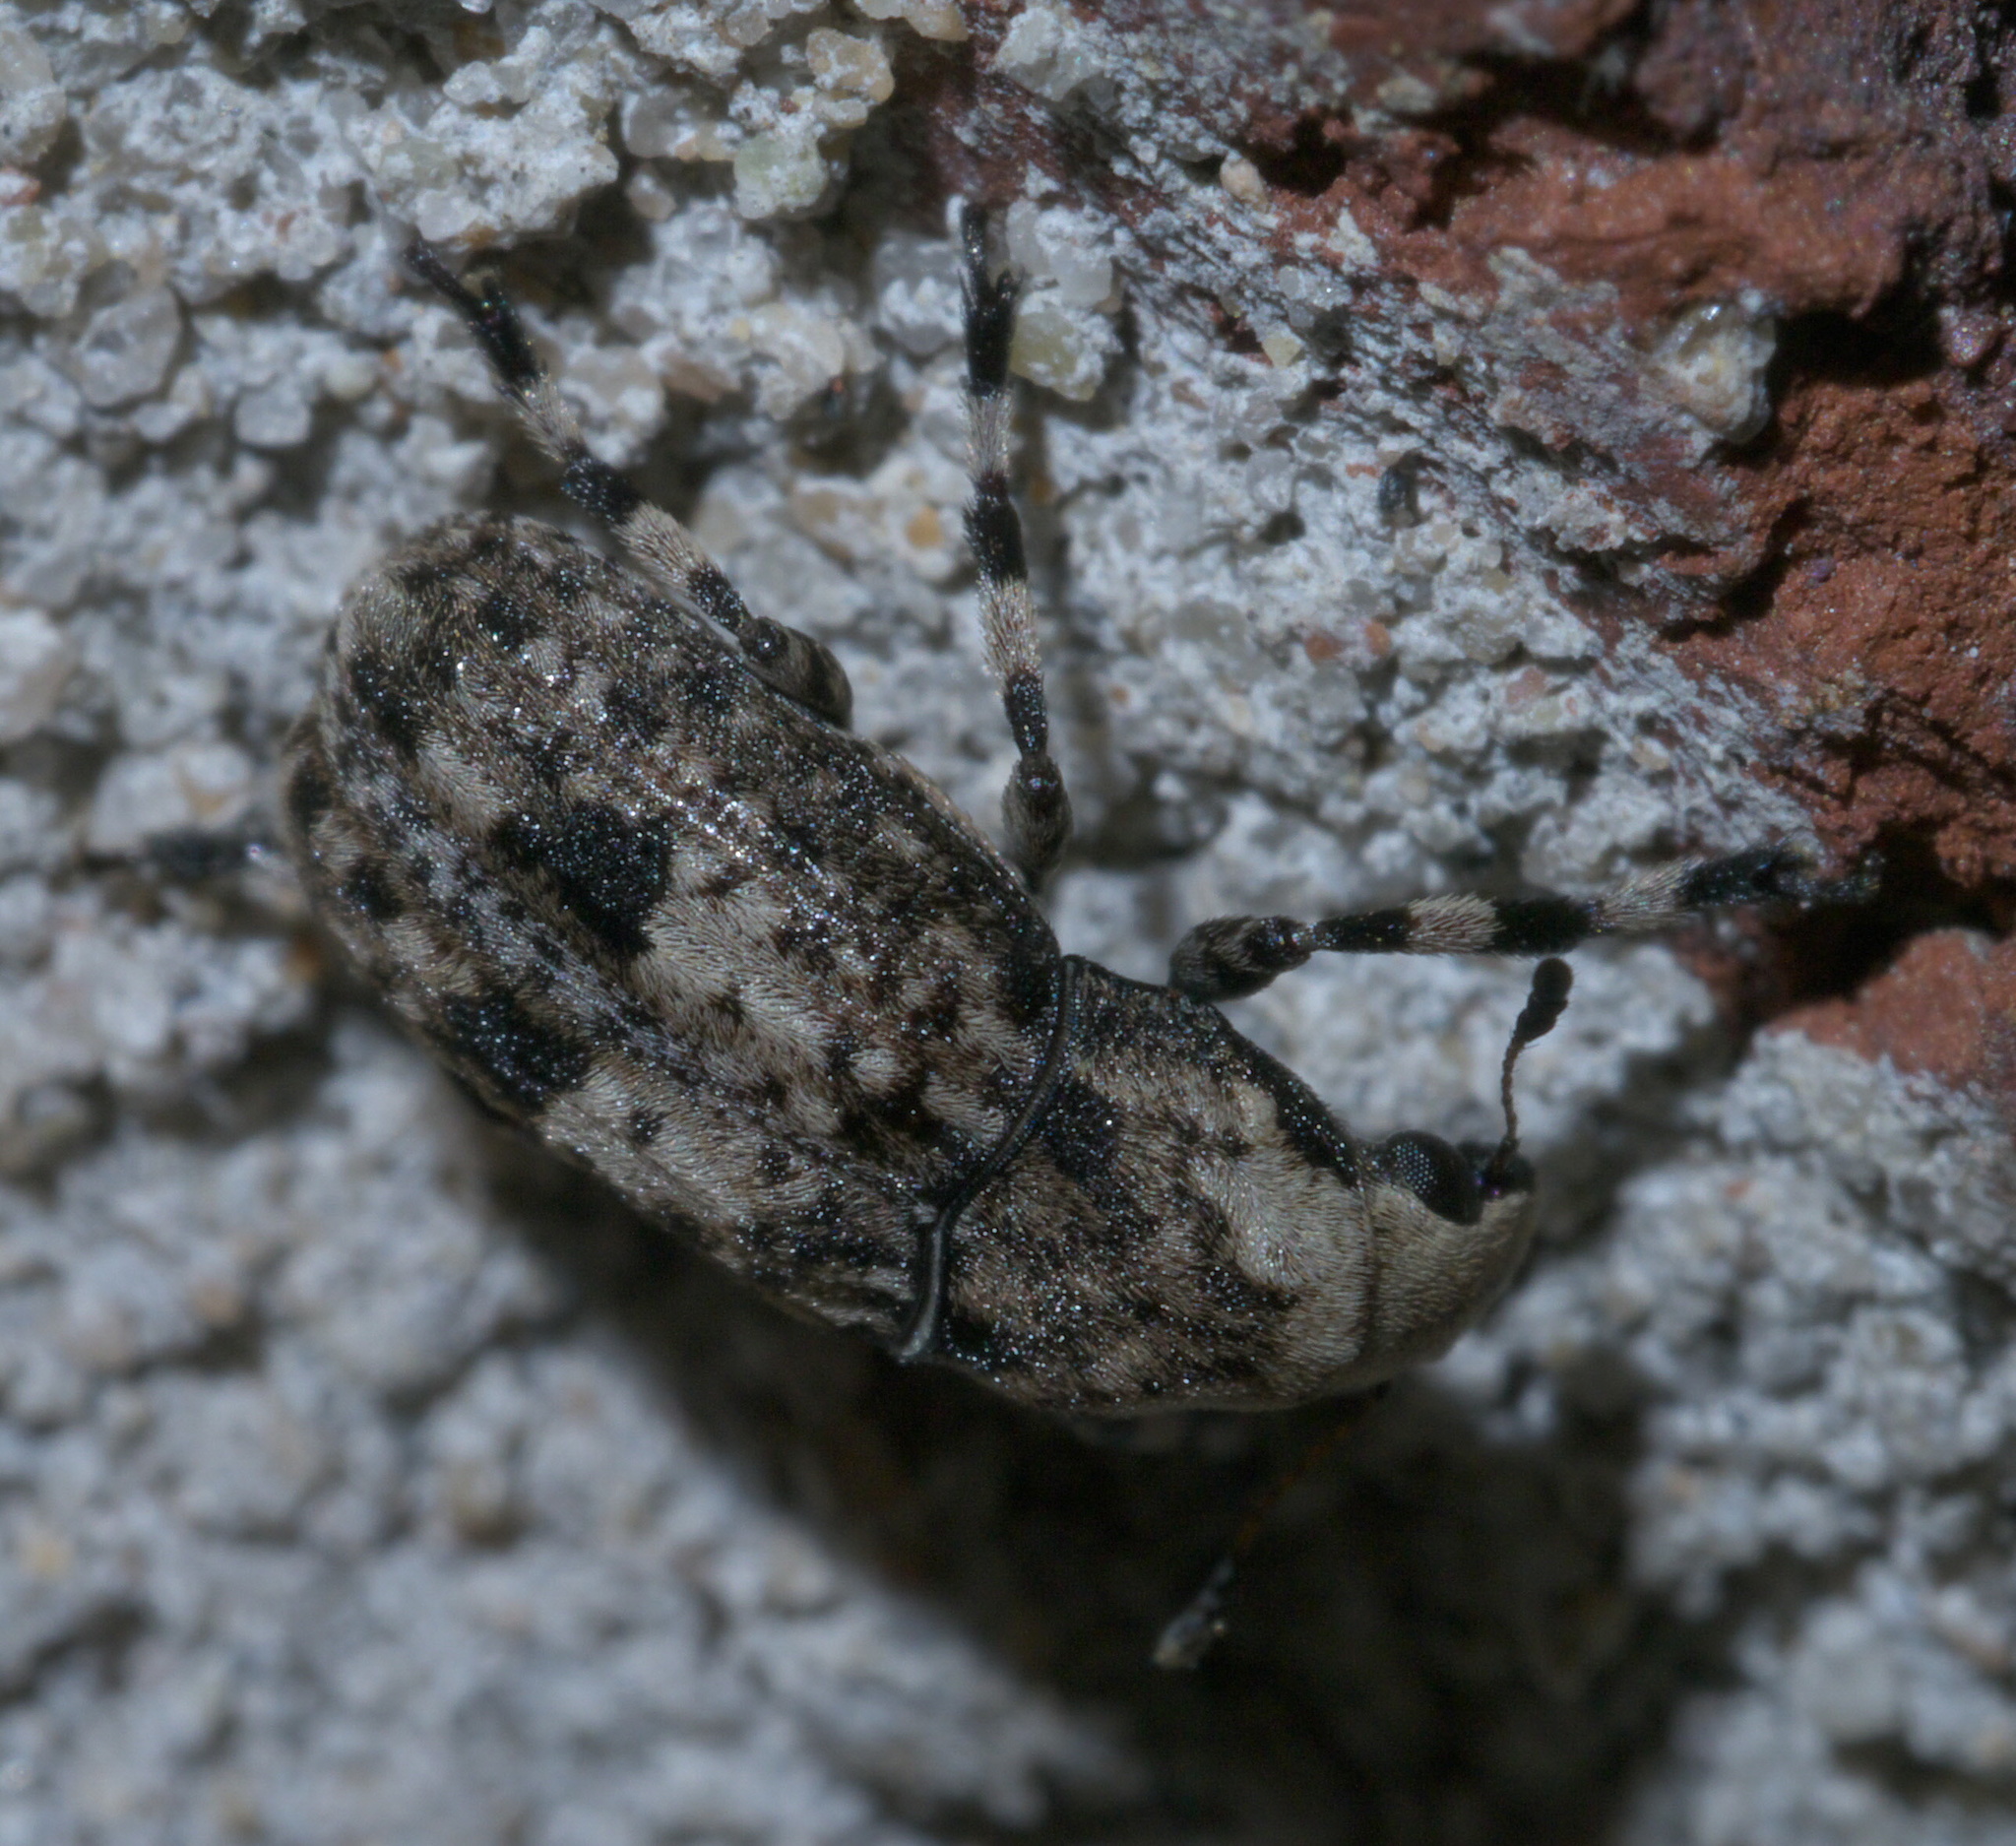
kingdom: Animalia
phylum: Arthropoda
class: Insecta
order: Coleoptera
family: Anthribidae
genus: Euparius
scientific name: Euparius marmoreus
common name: Marbled fungus weevil
